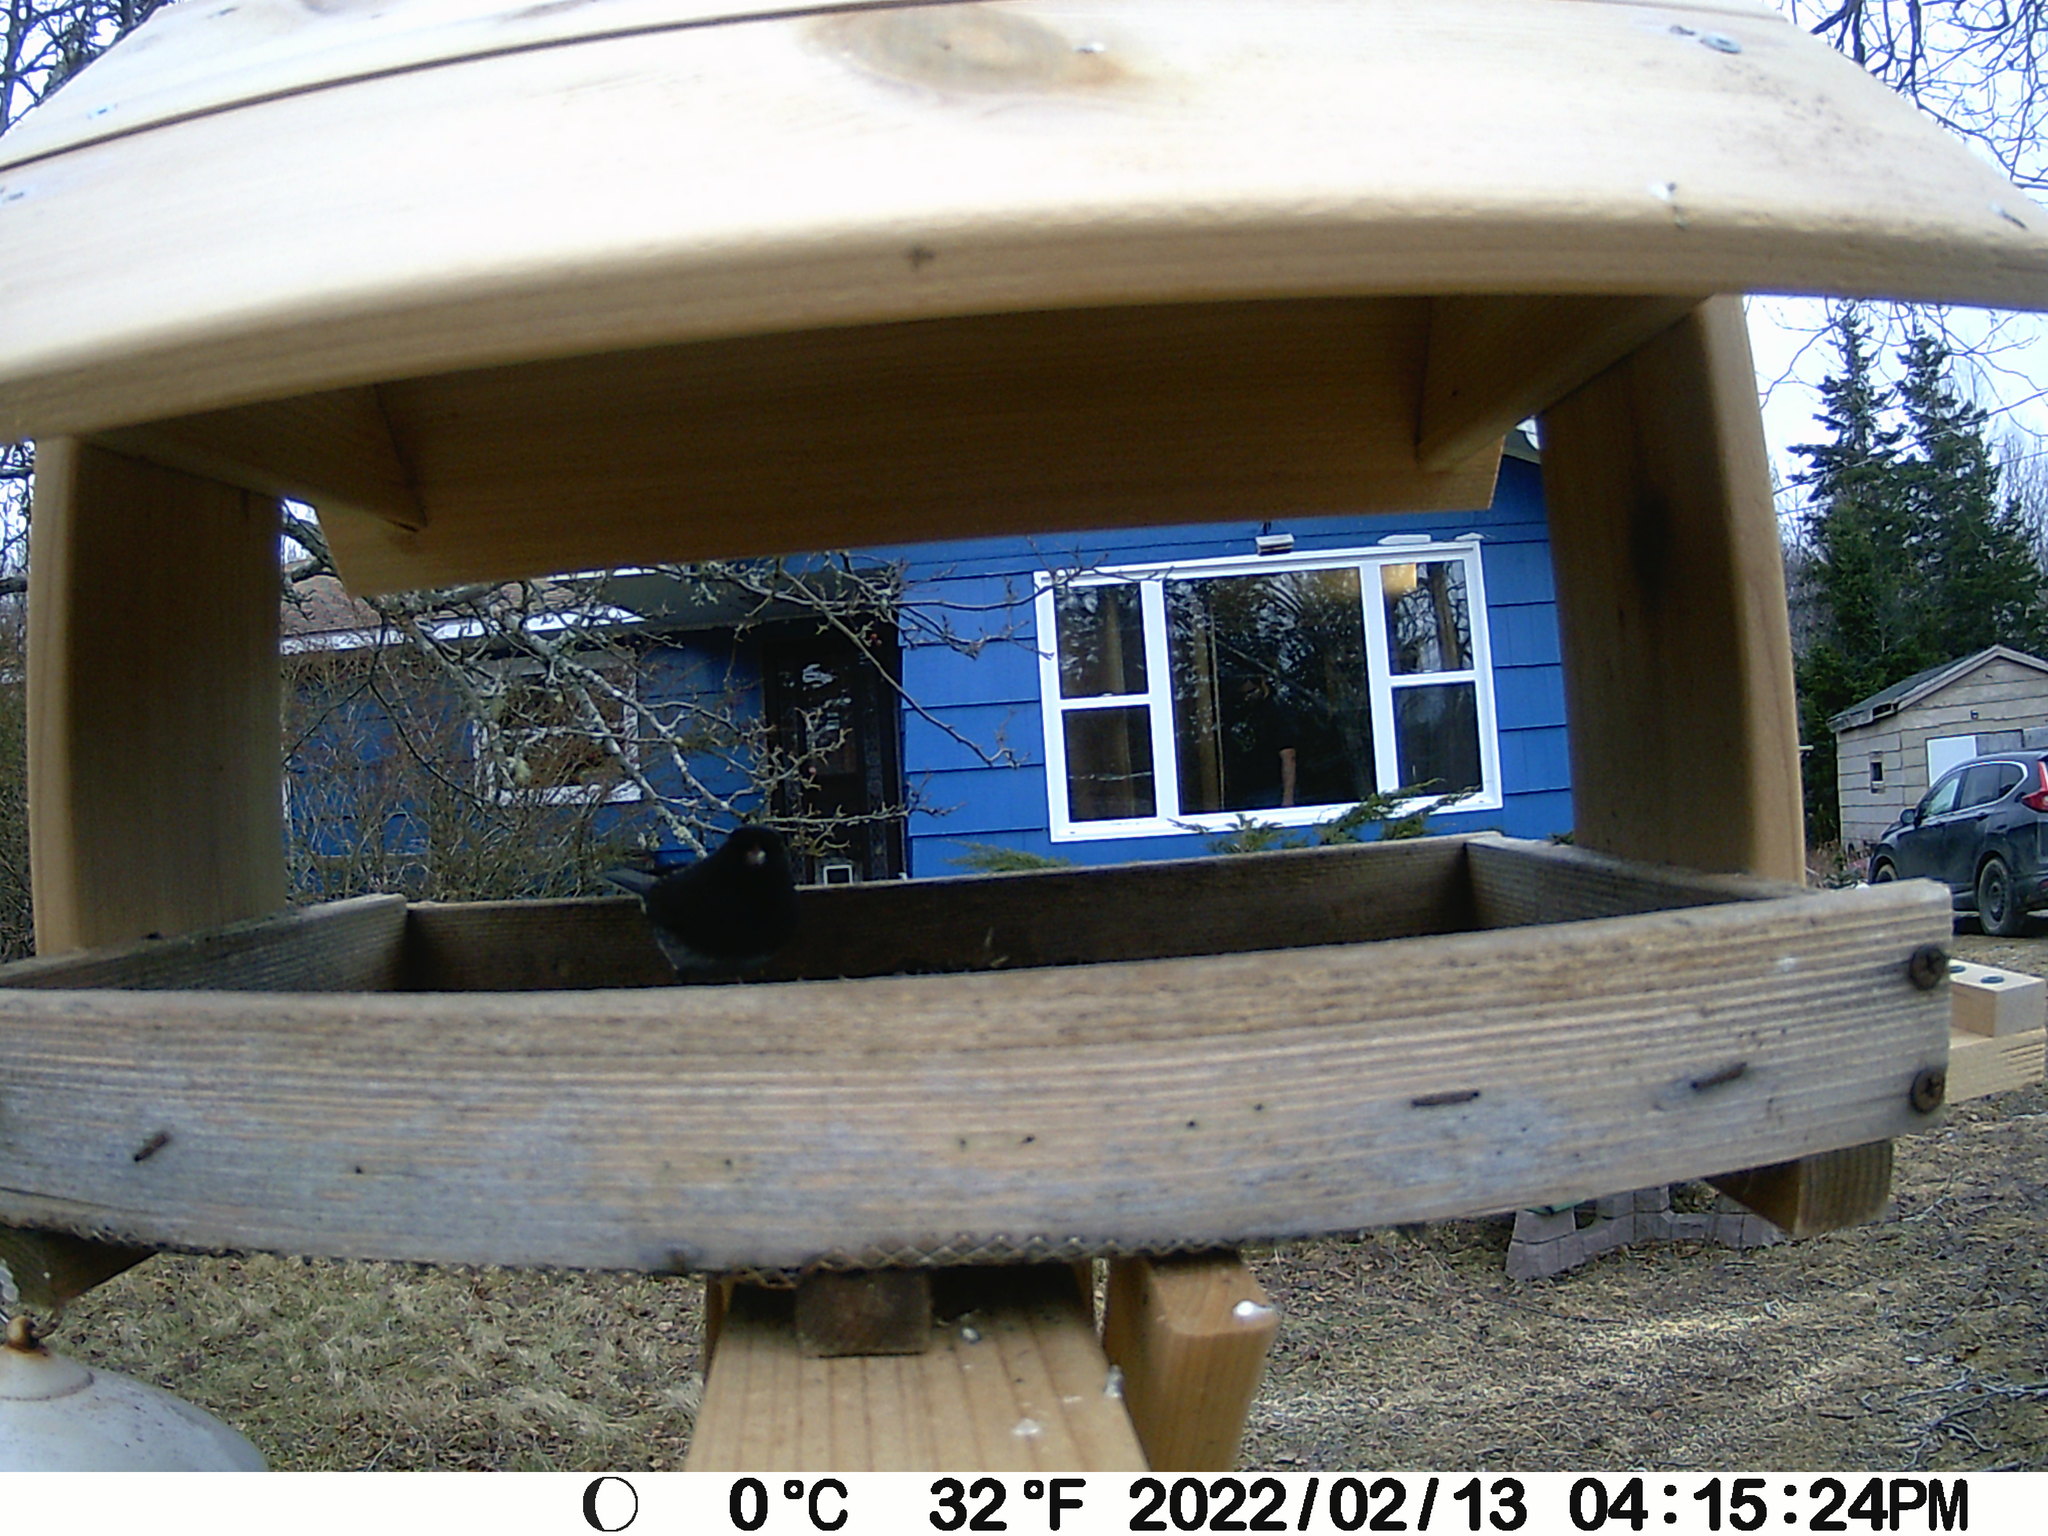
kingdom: Animalia
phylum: Chordata
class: Aves
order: Passeriformes
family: Passerellidae
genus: Junco
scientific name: Junco hyemalis
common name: Dark-eyed junco
